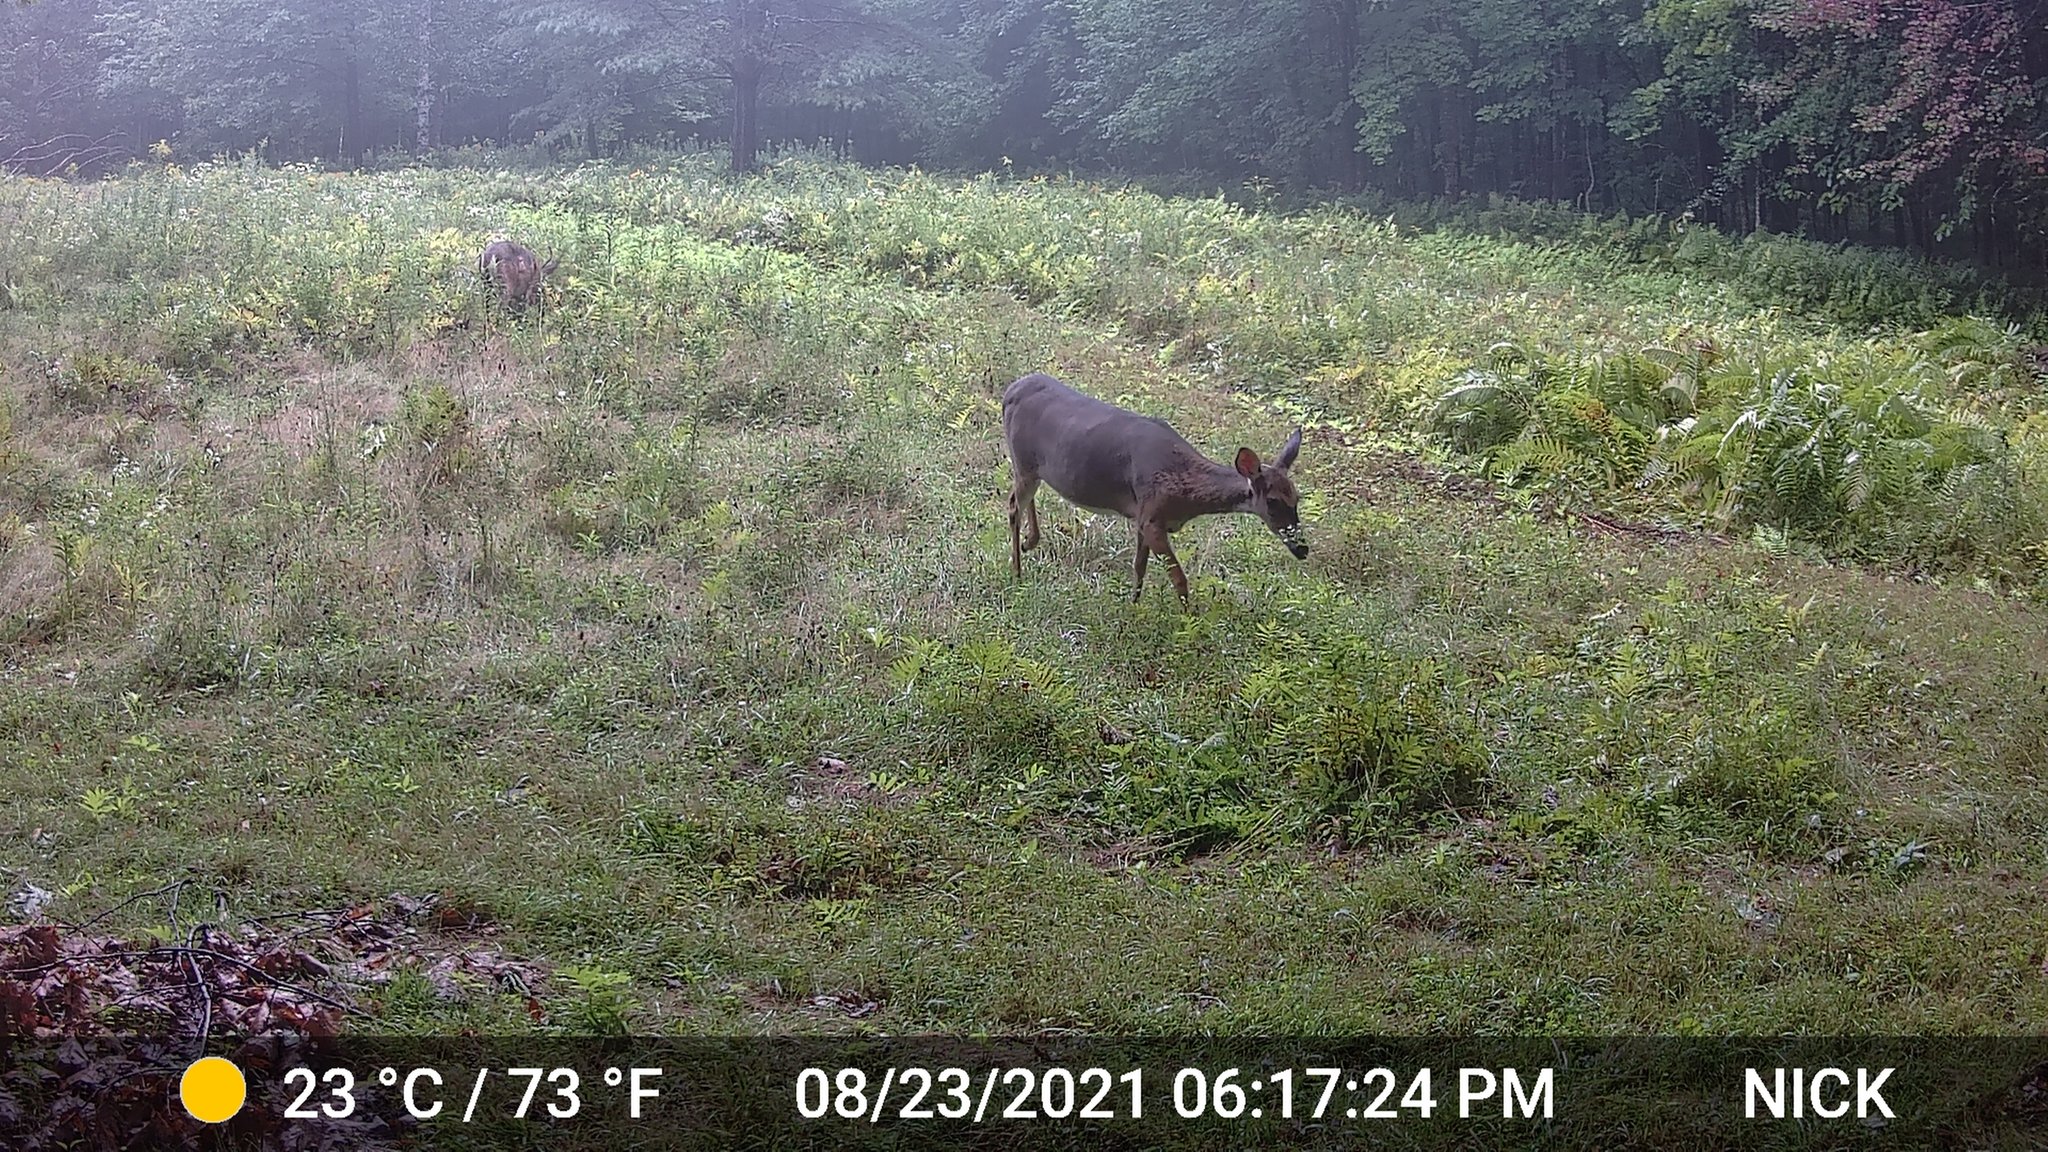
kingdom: Animalia
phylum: Chordata
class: Mammalia
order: Artiodactyla
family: Cervidae
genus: Odocoileus
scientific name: Odocoileus virginianus
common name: White-tailed deer
